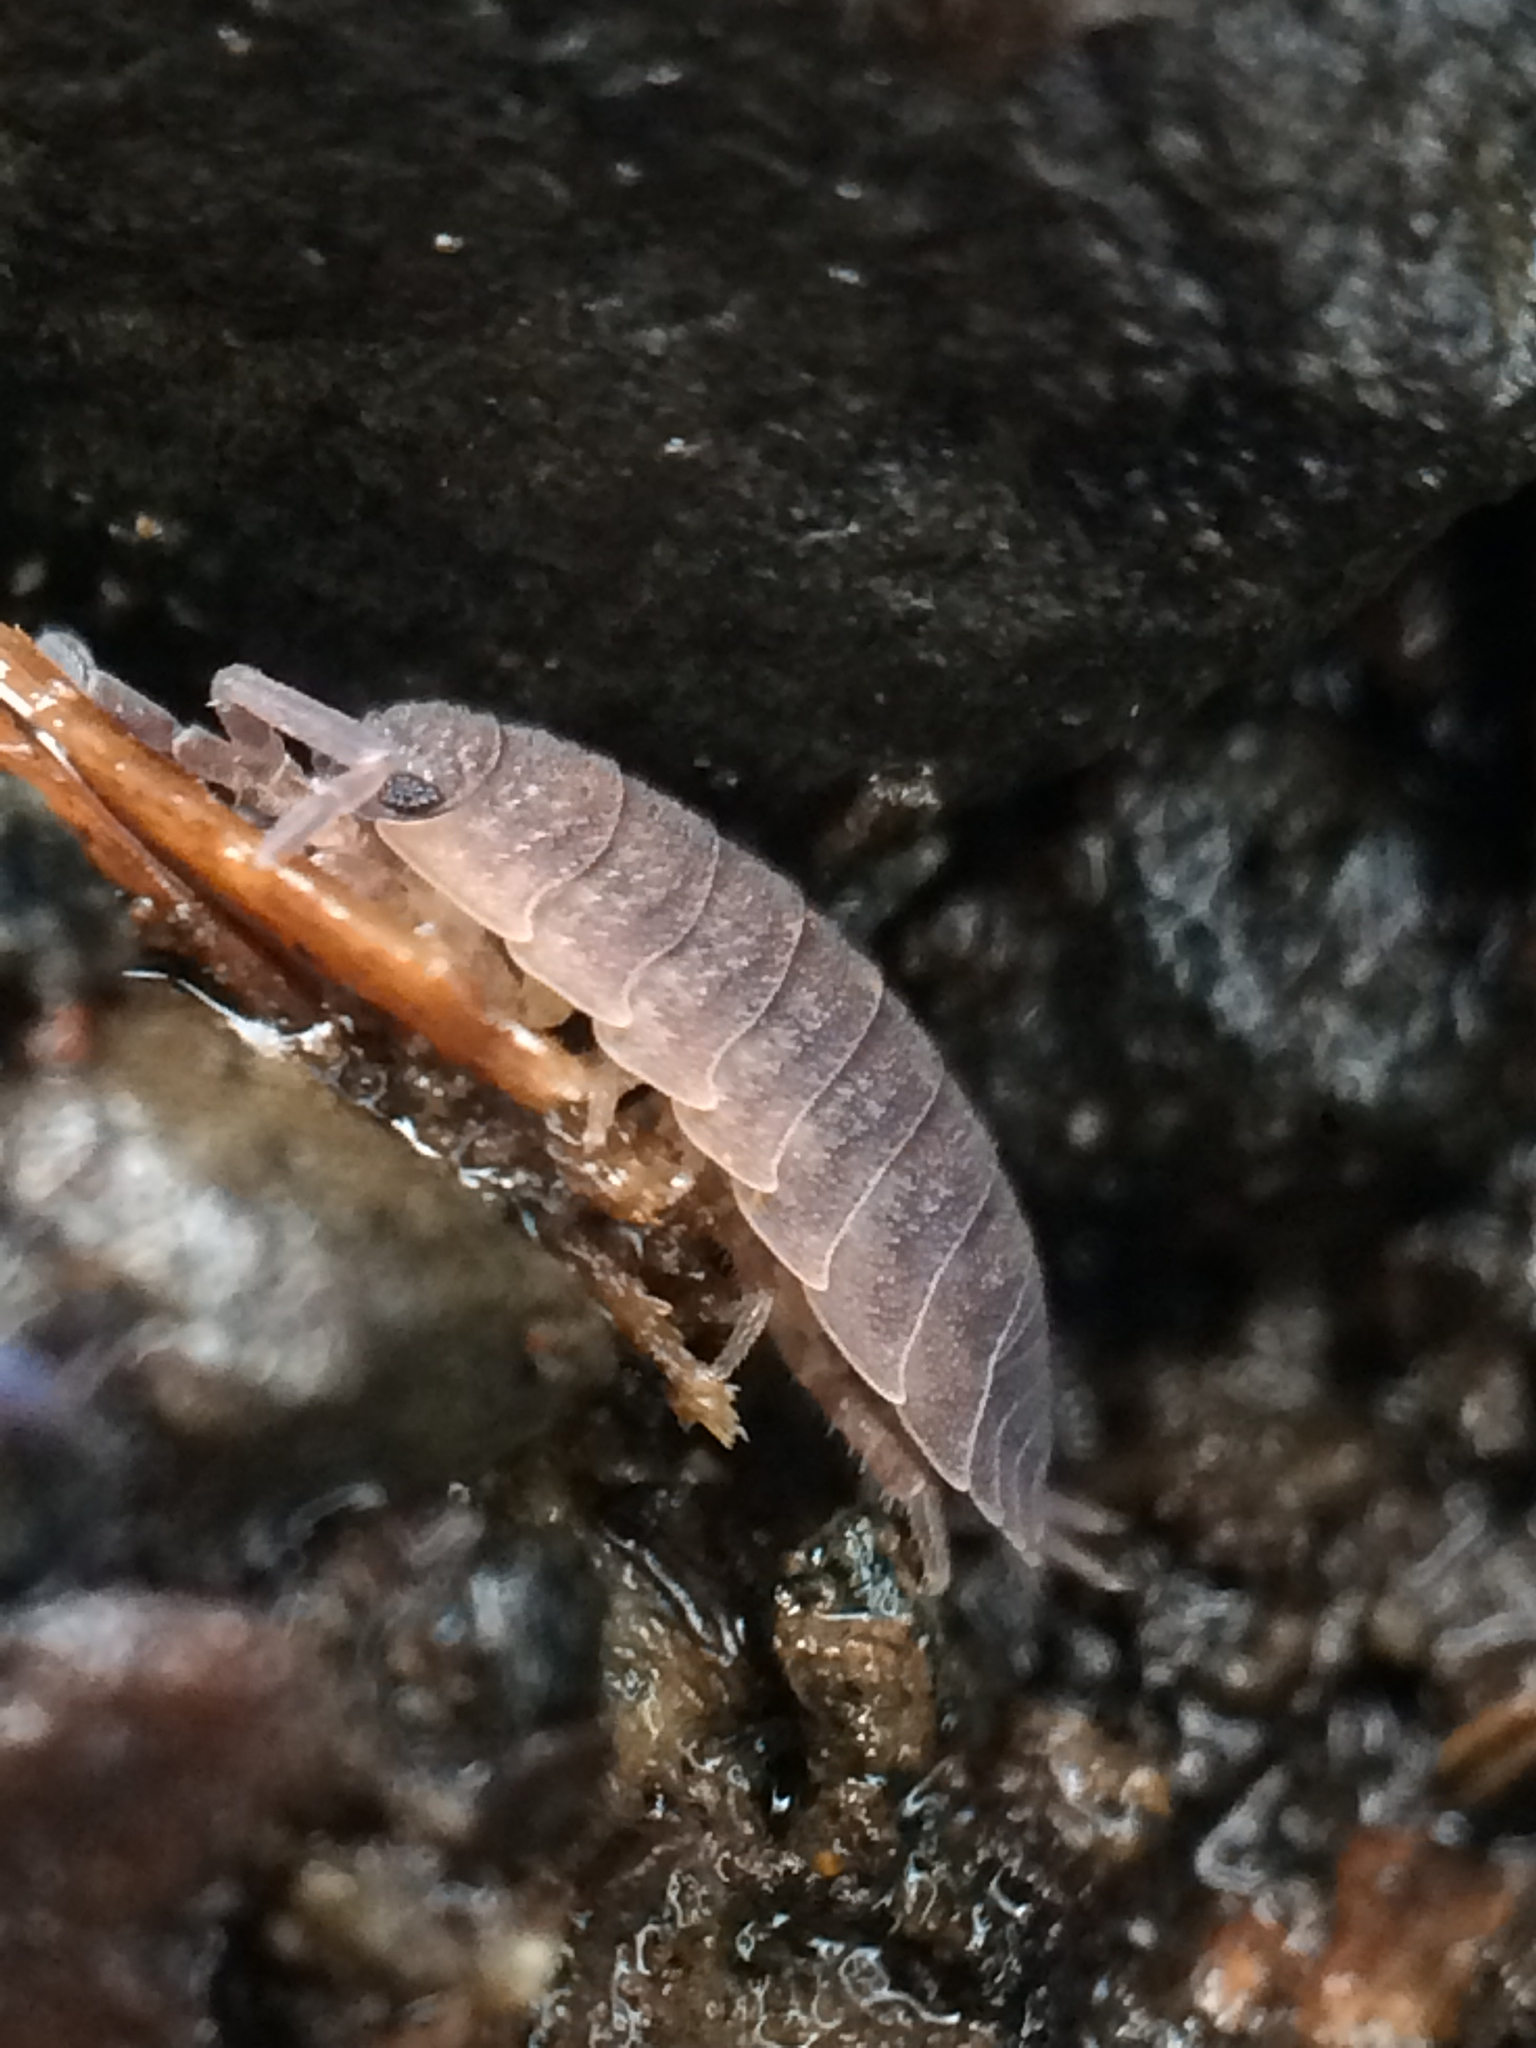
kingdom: Animalia
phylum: Arthropoda
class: Malacostraca
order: Isopoda
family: Porcellionidae
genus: Porcellio
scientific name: Porcellio scaber
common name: Common rough woodlouse
